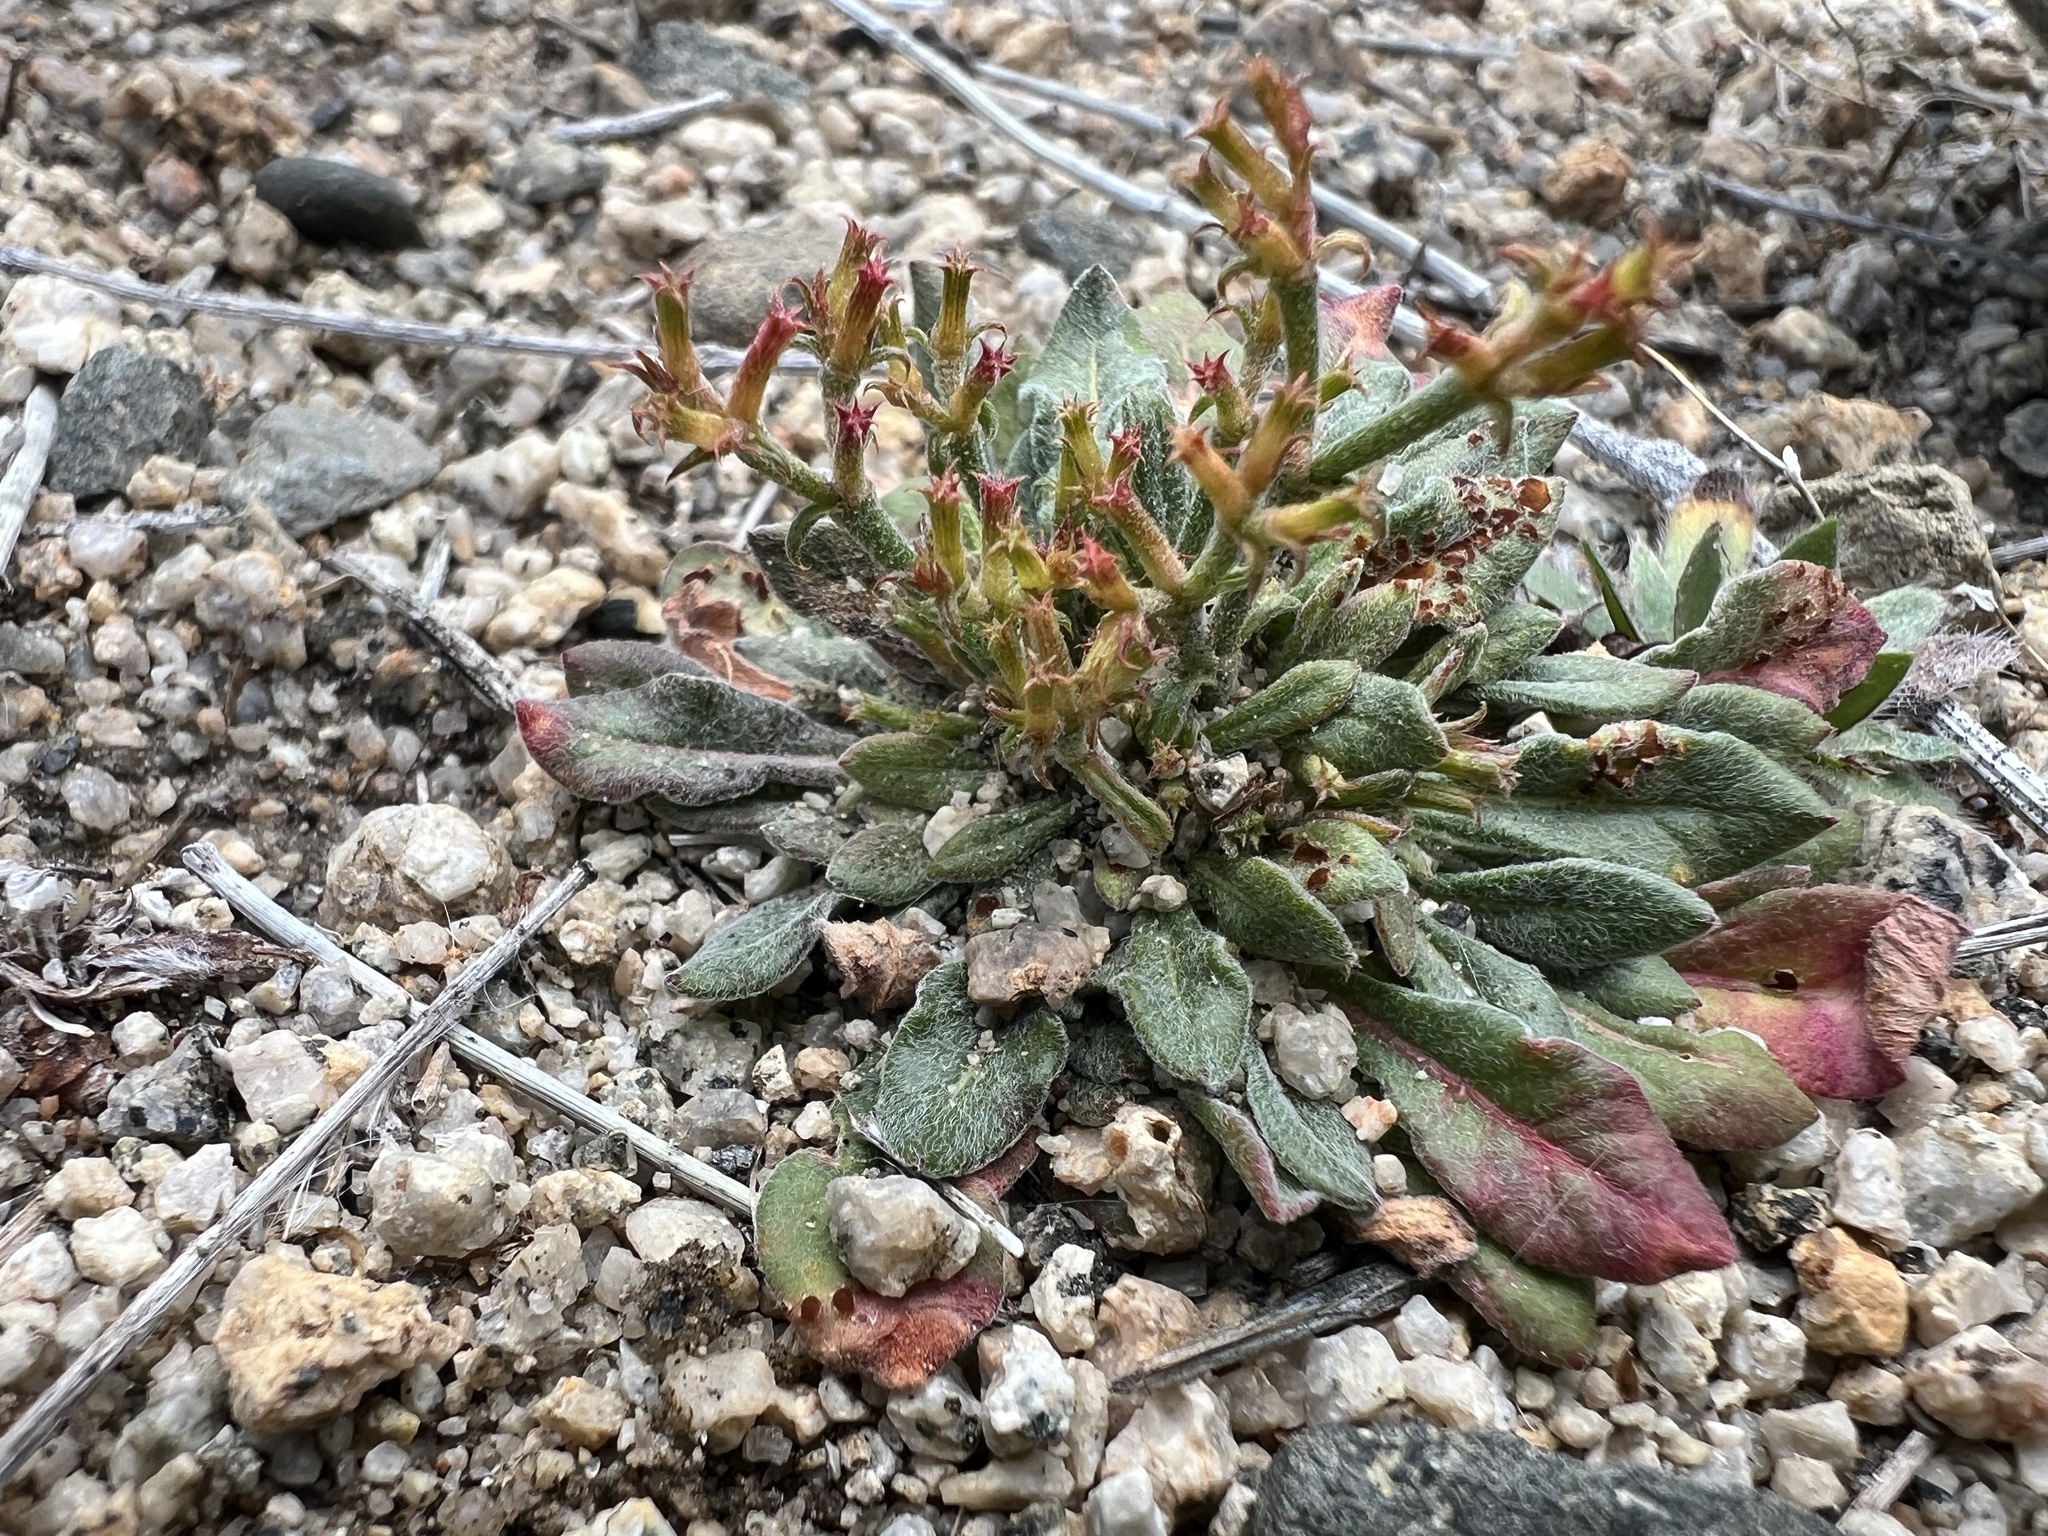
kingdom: Plantae
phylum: Tracheophyta
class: Magnoliopsida
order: Caryophyllales
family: Polygonaceae
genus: Chorizanthe
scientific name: Chorizanthe brevicornu
